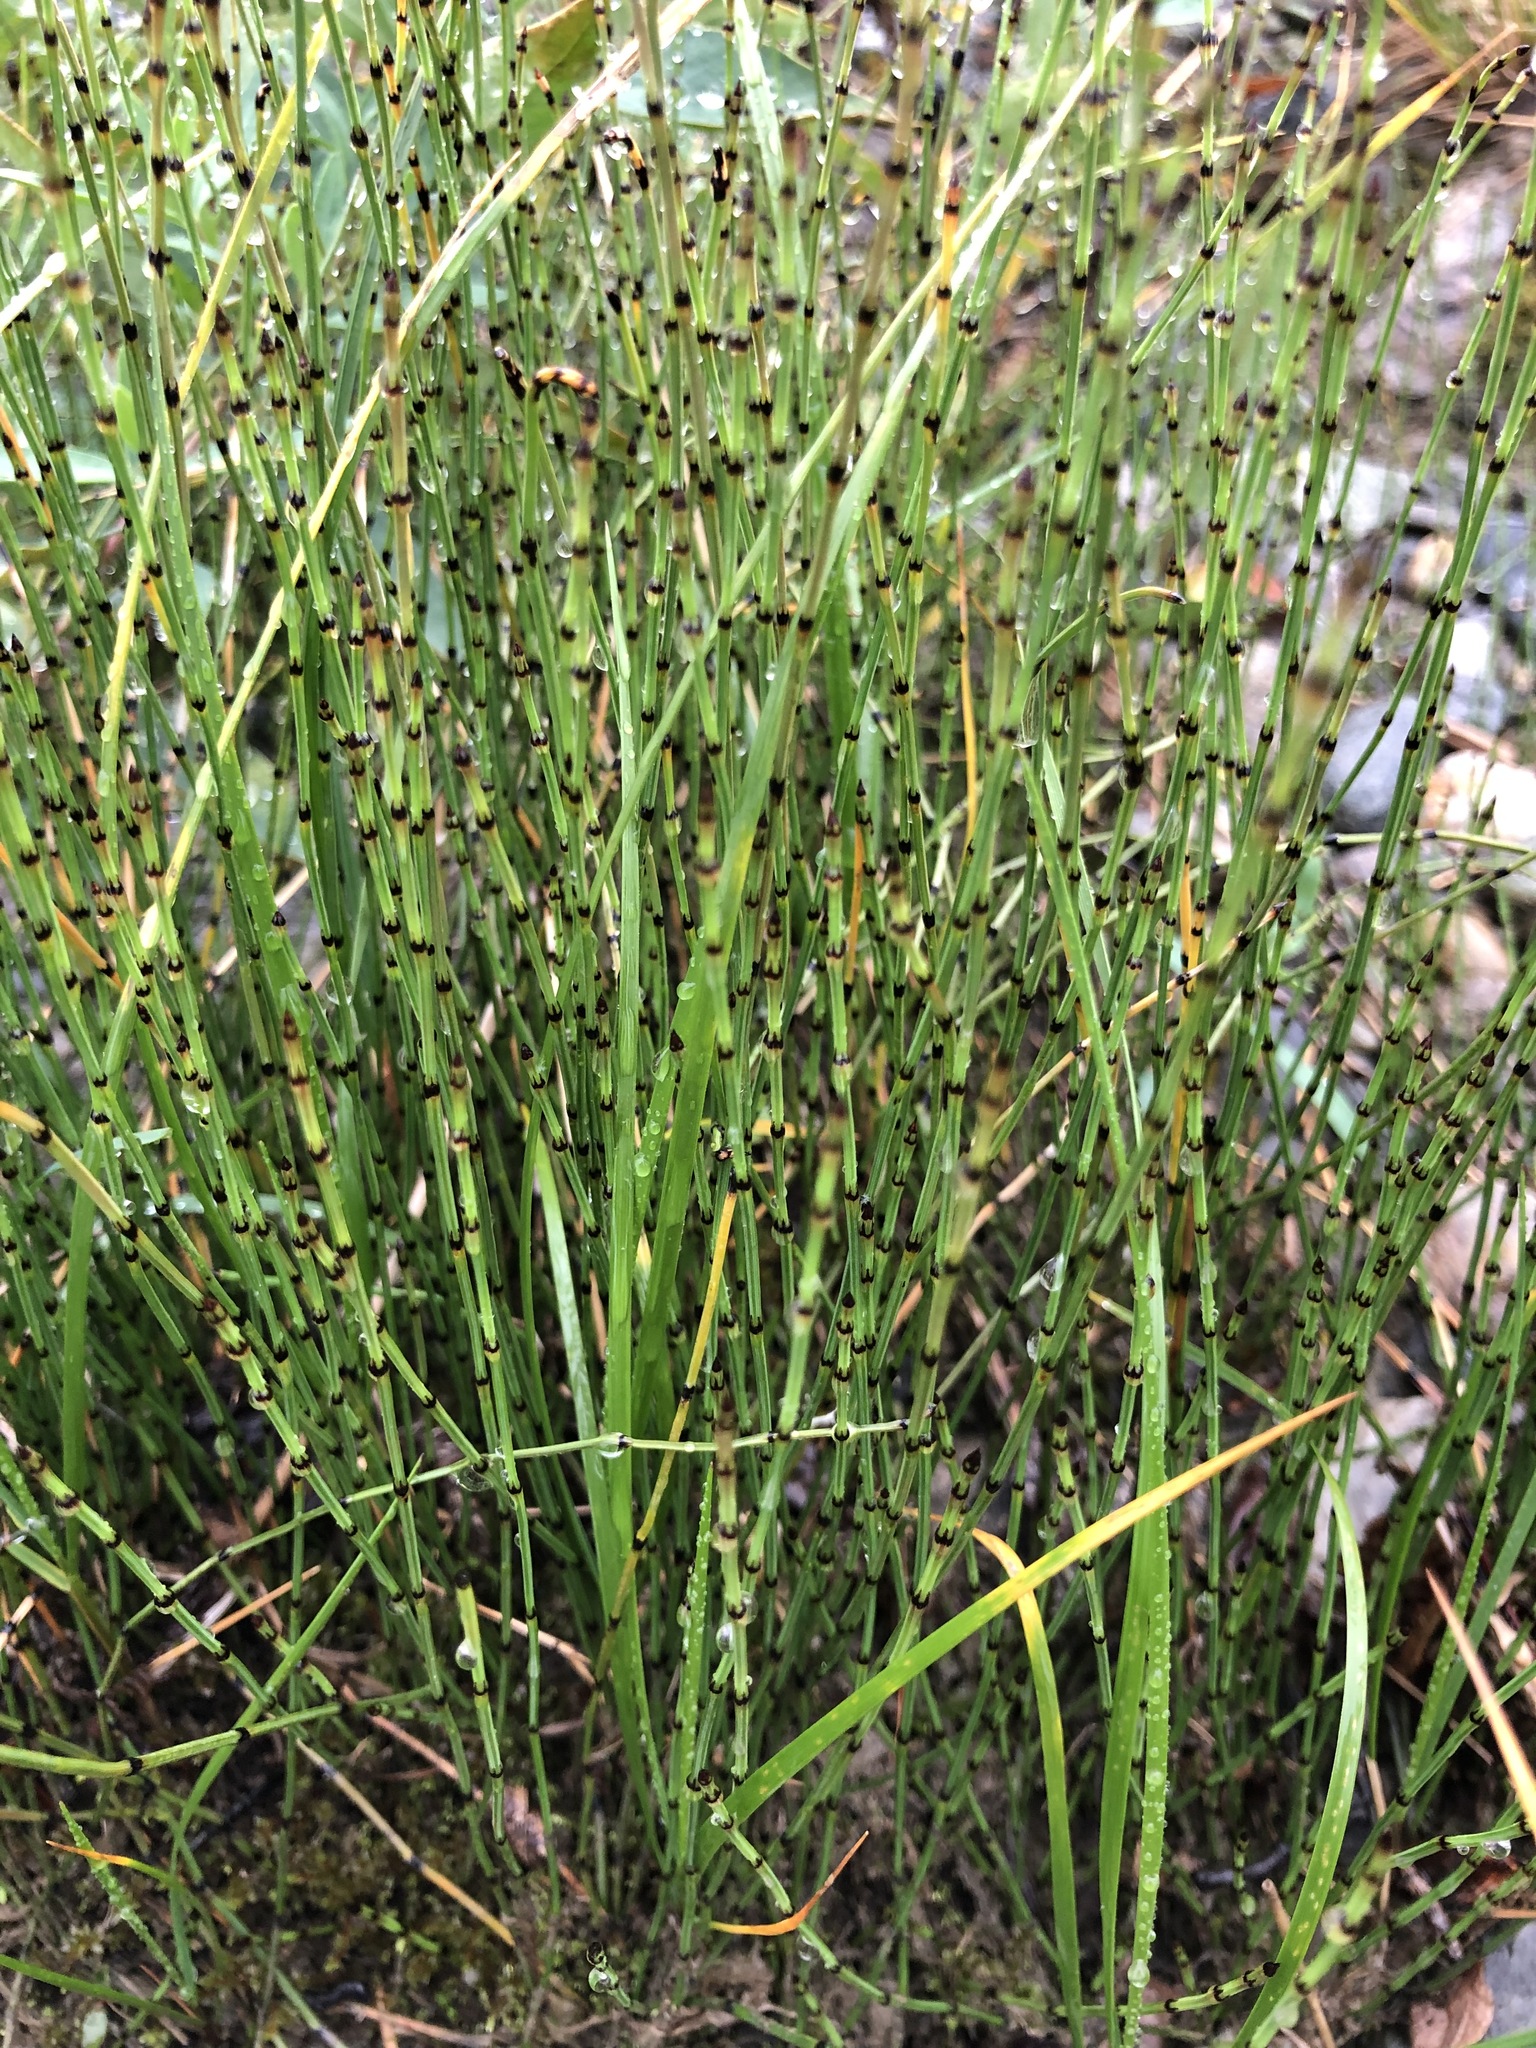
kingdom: Plantae
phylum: Tracheophyta
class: Polypodiopsida
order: Equisetales
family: Equisetaceae
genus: Equisetum
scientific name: Equisetum variegatum
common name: Variegated horsetail
